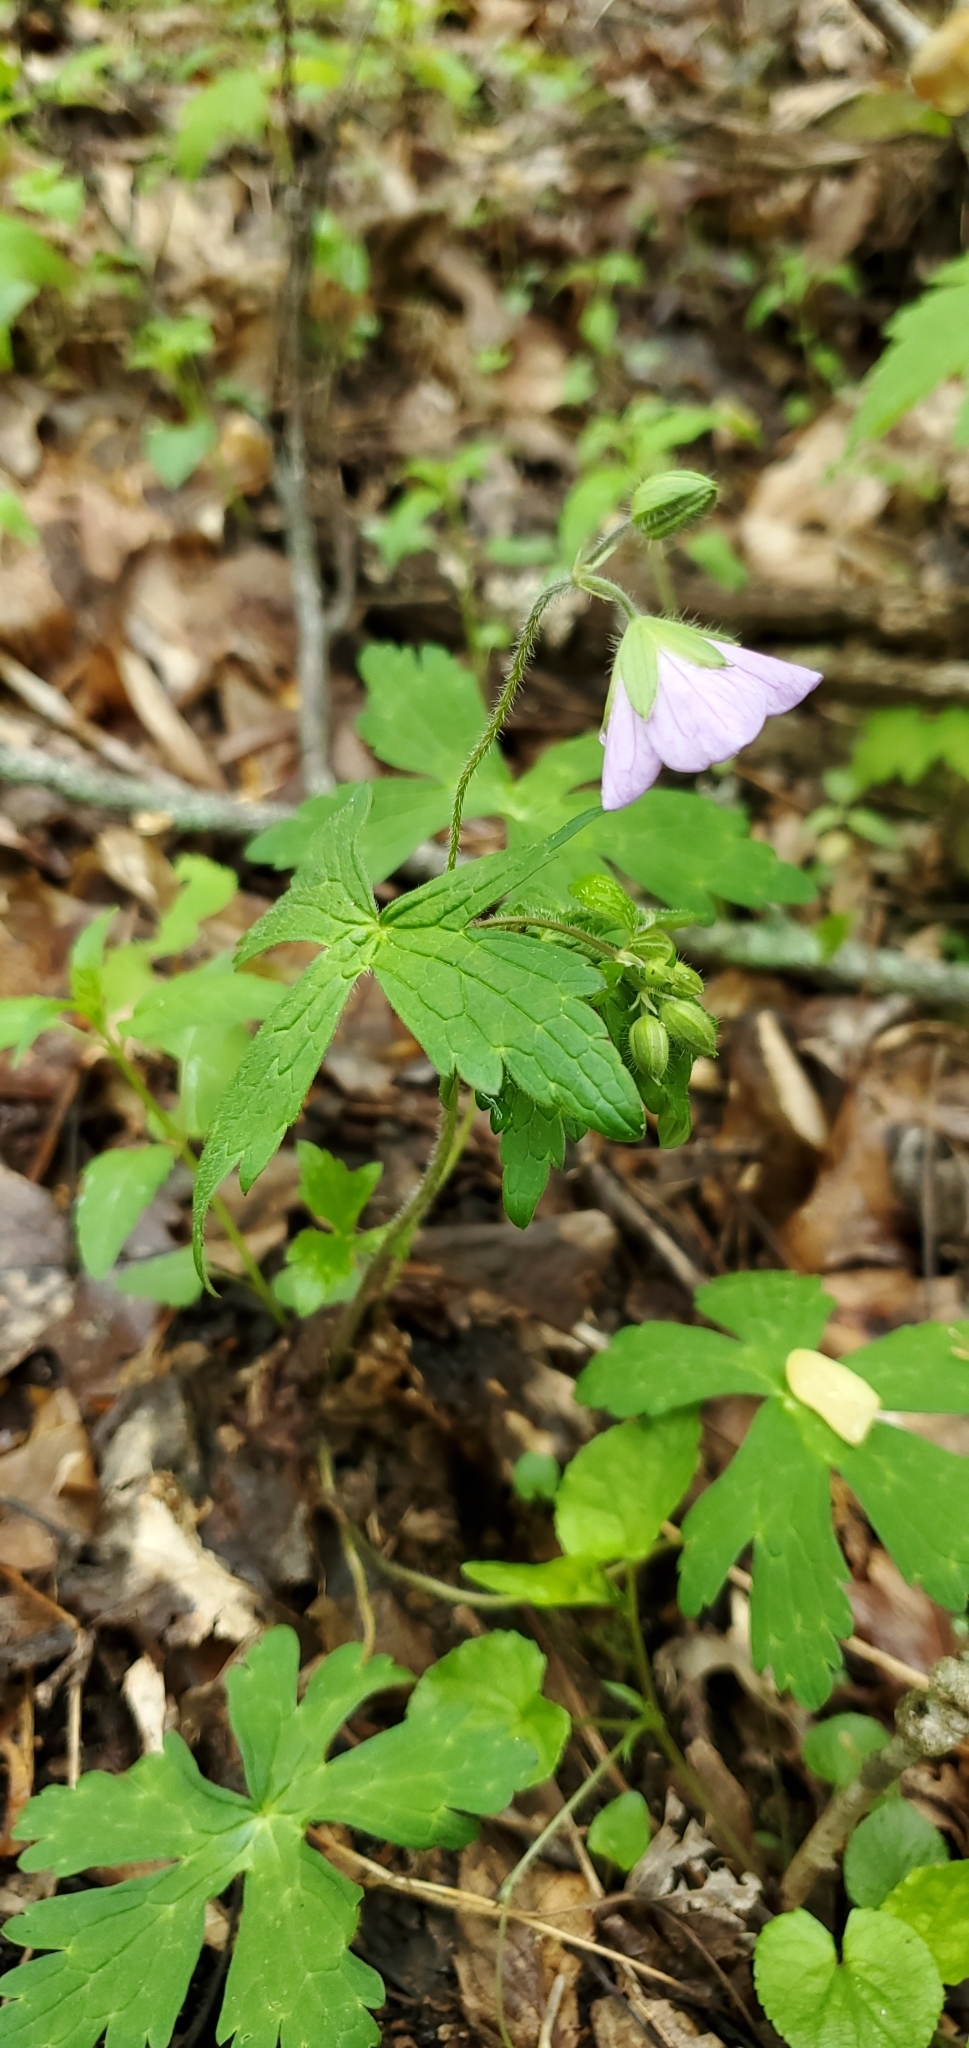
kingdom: Plantae
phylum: Tracheophyta
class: Magnoliopsida
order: Geraniales
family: Geraniaceae
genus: Geranium
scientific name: Geranium maculatum
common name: Spotted geranium
